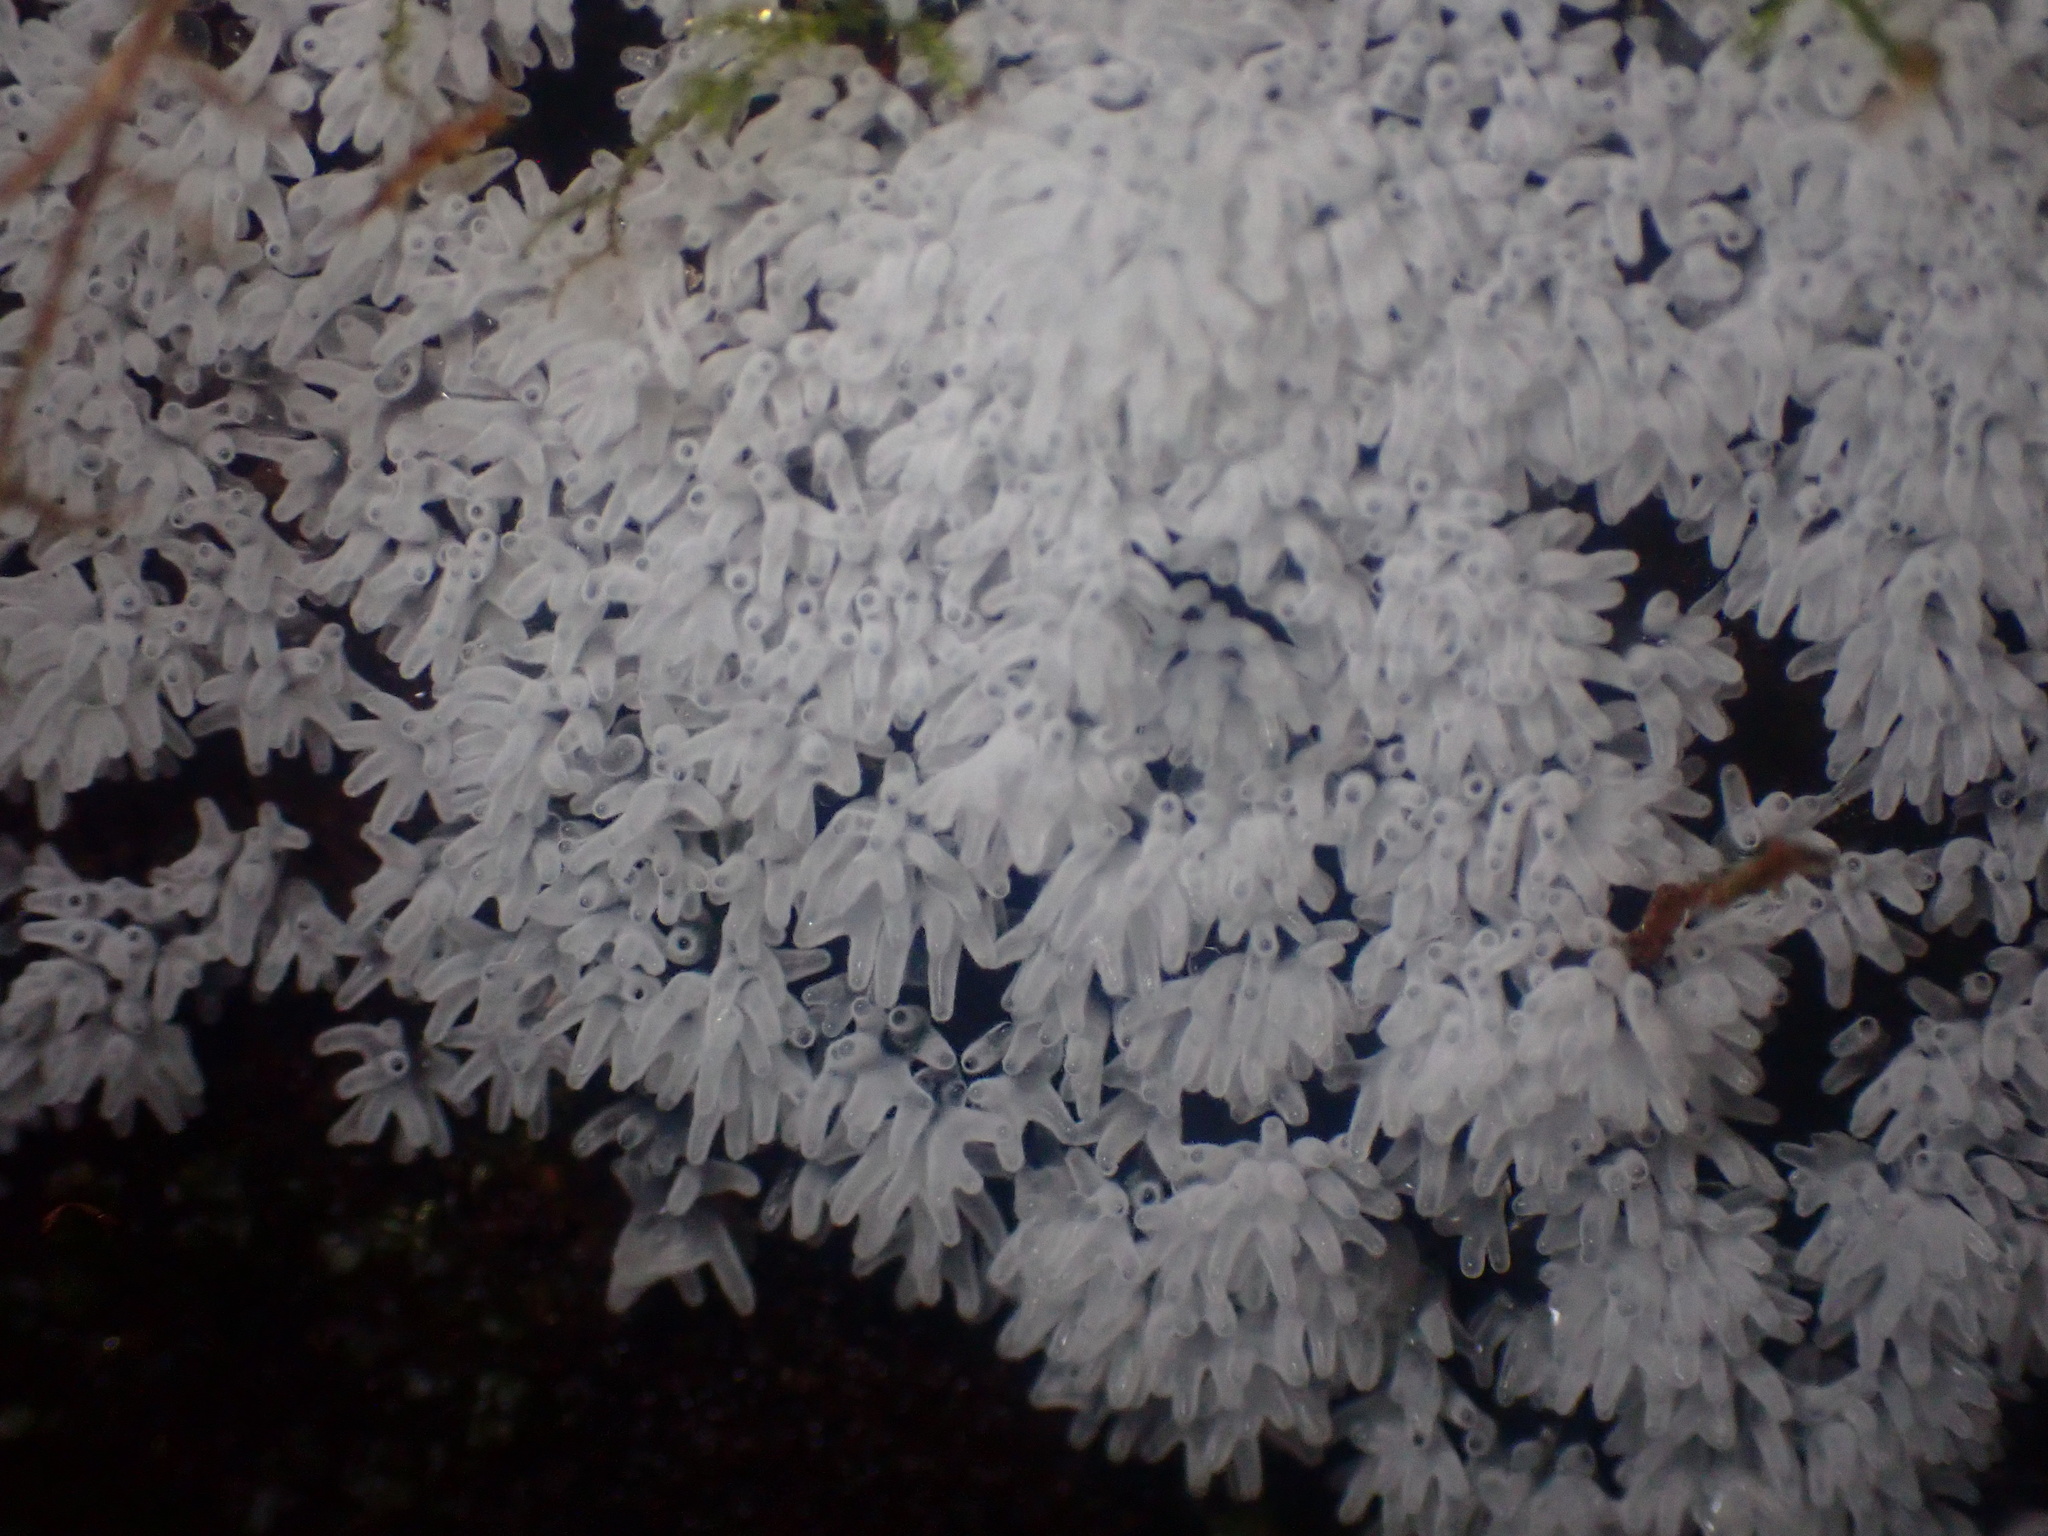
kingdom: Protozoa
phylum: Mycetozoa
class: Protosteliomycetes
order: Ceratiomyxales
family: Ceratiomyxaceae
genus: Ceratiomyxa
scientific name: Ceratiomyxa fruticulosa
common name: Honeycomb coral slime mold
